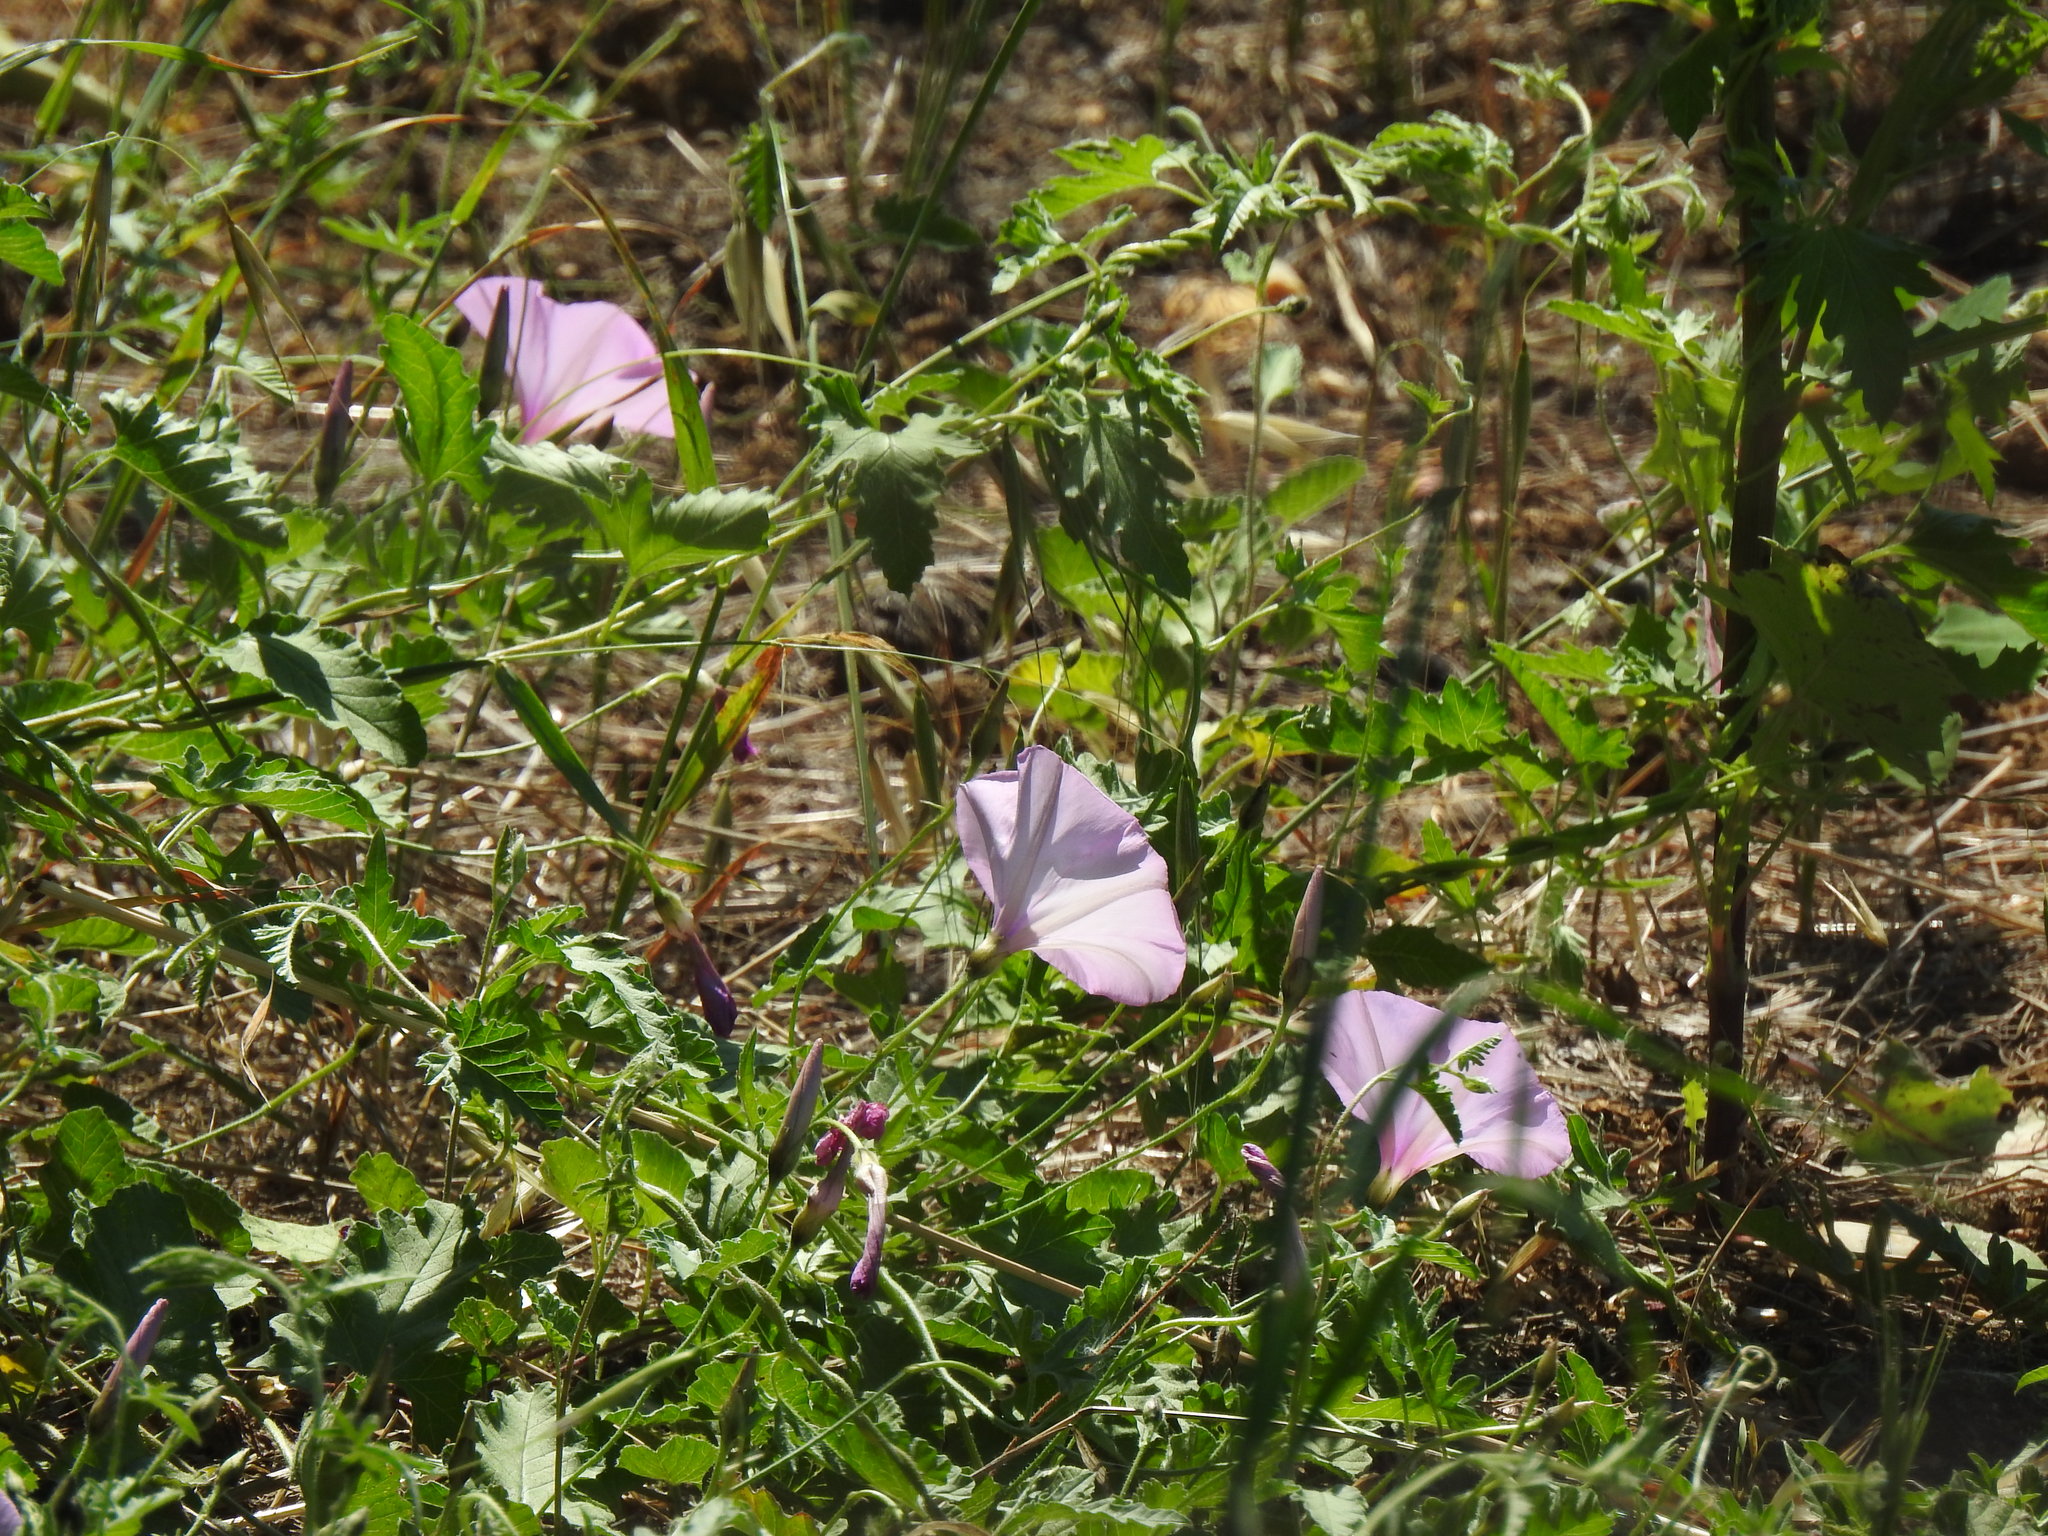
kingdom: Plantae
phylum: Tracheophyta
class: Magnoliopsida
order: Solanales
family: Convolvulaceae
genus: Convolvulus
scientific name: Convolvulus althaeoides
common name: Mallow bindweed
